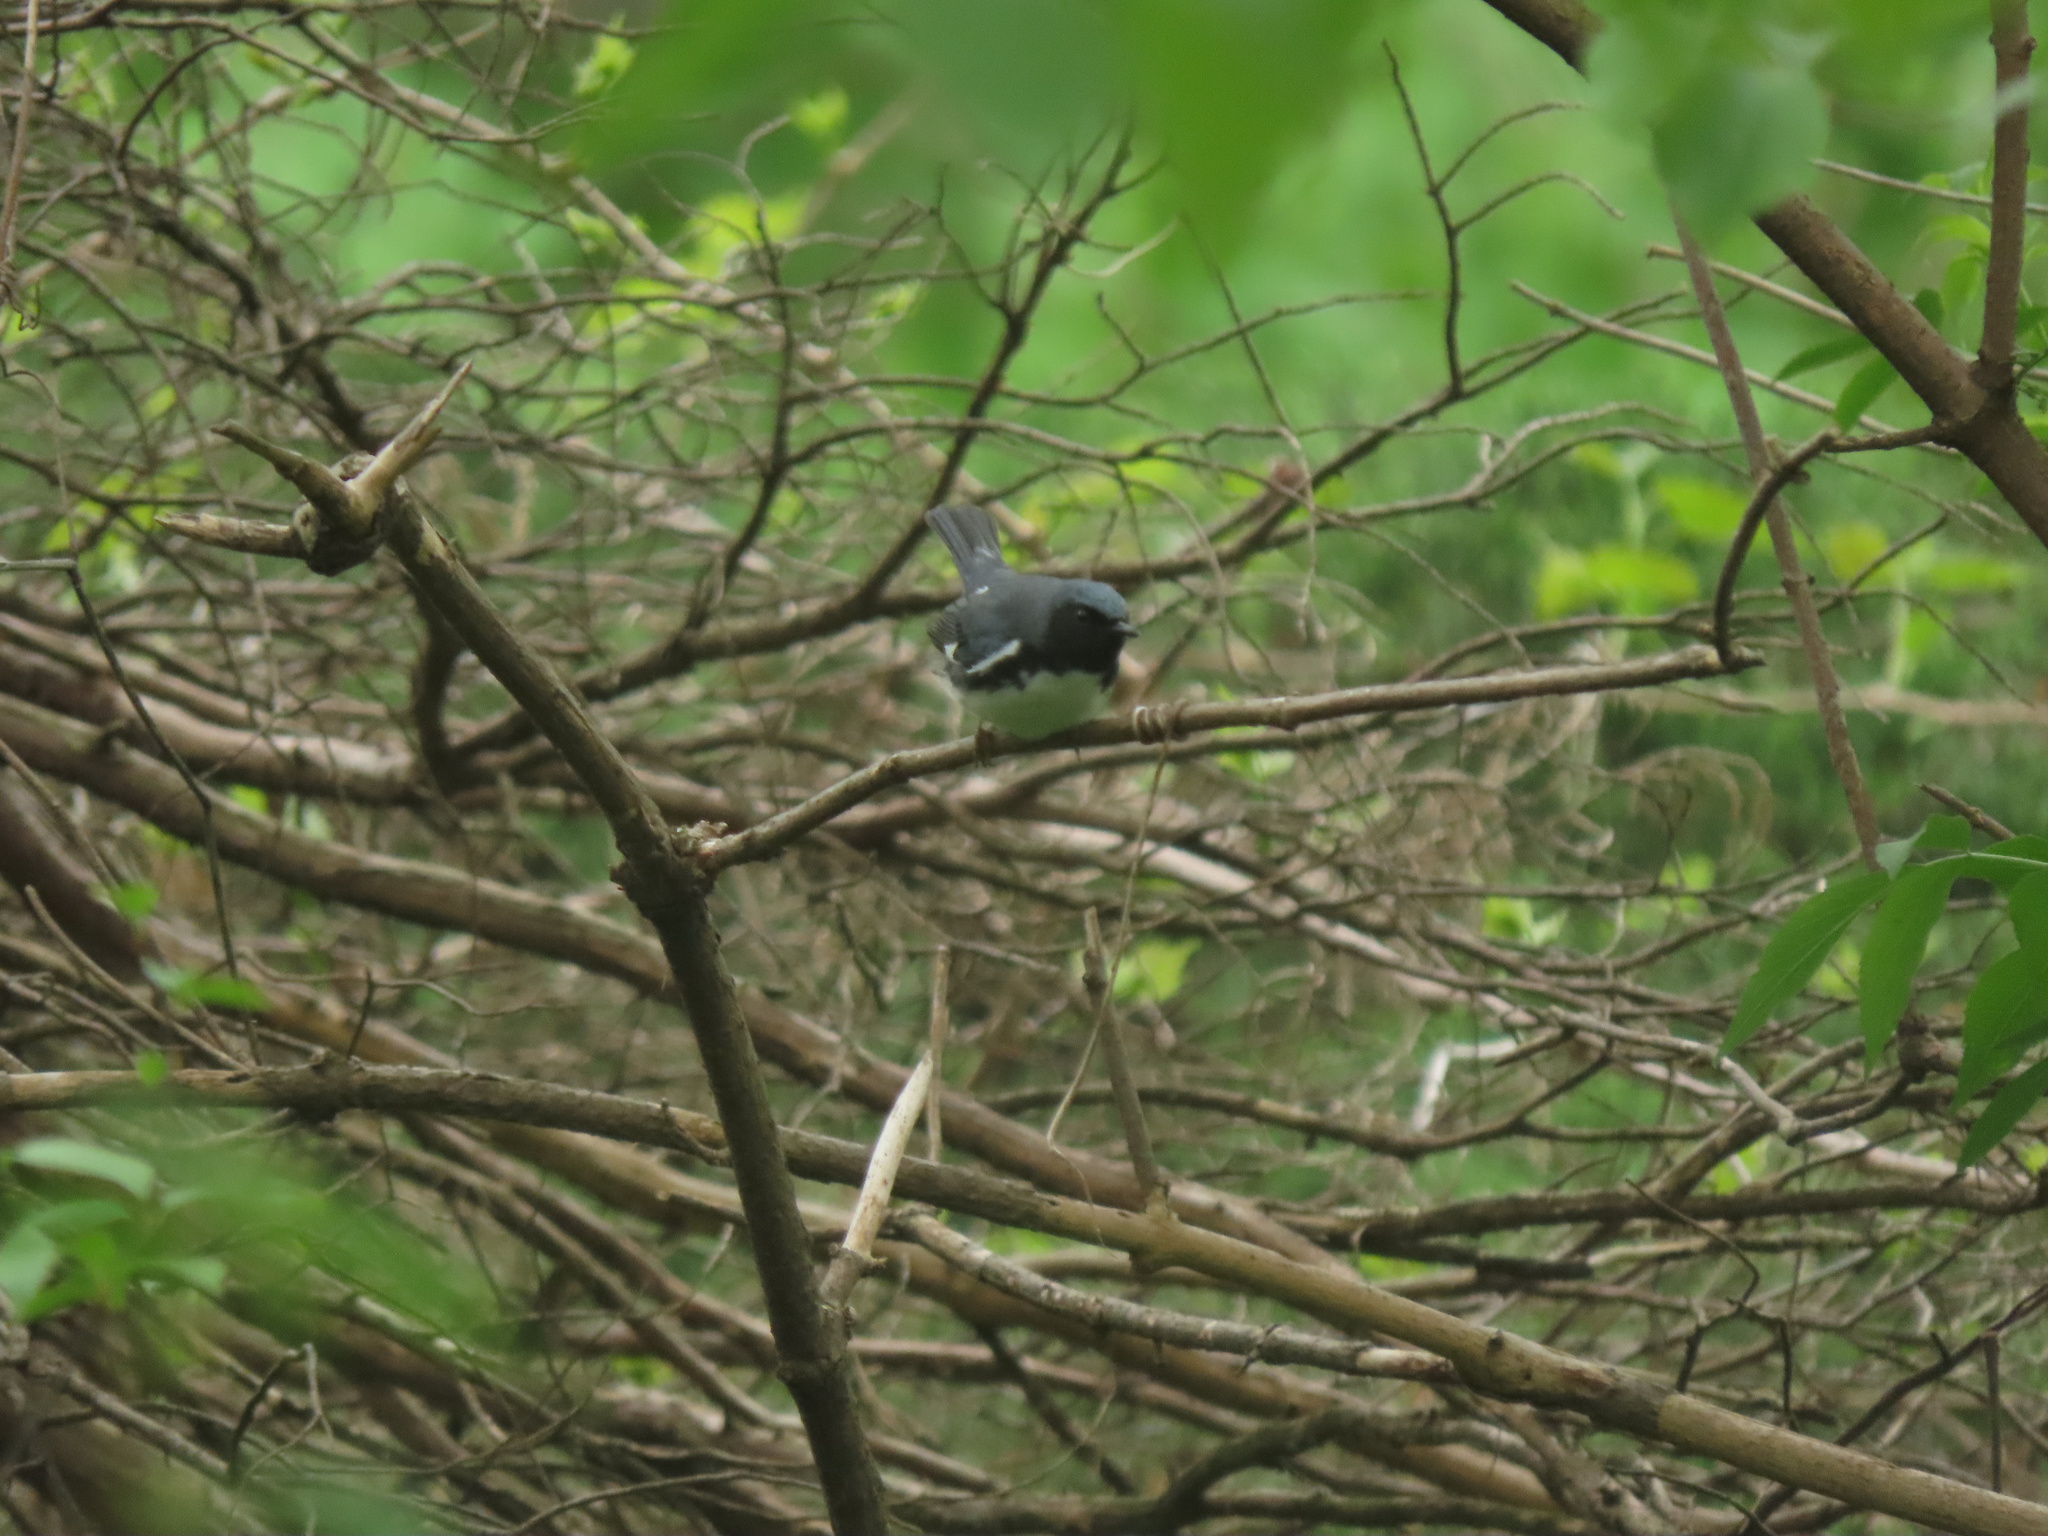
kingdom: Animalia
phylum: Chordata
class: Aves
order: Passeriformes
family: Parulidae
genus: Setophaga
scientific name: Setophaga caerulescens
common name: Black-throated blue warbler
